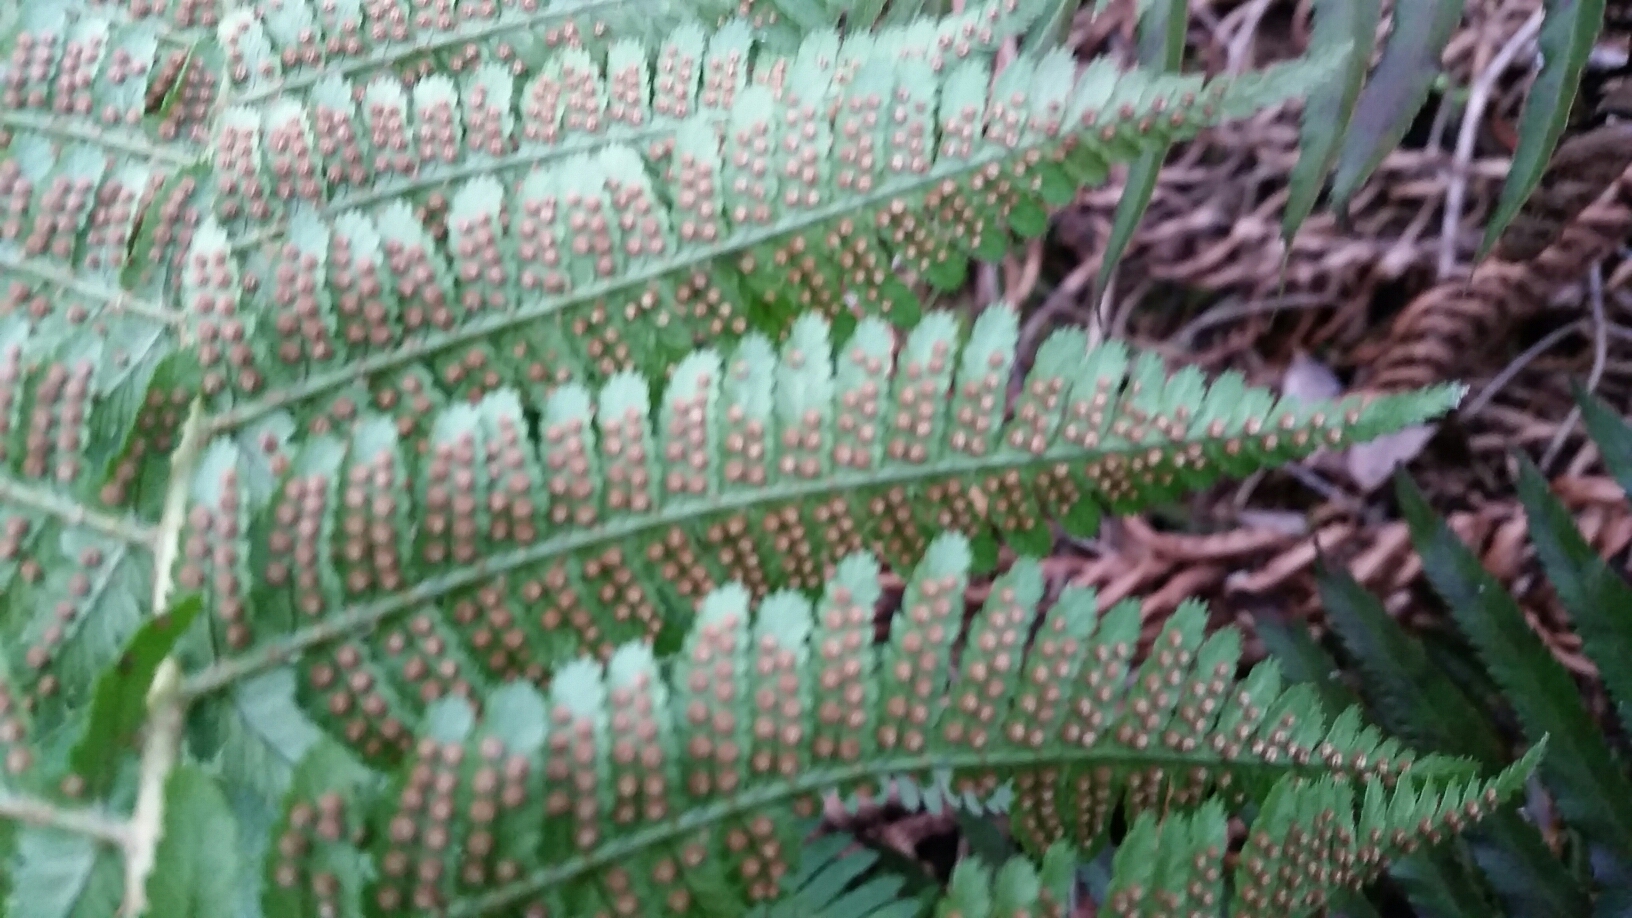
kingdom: Plantae
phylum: Tracheophyta
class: Polypodiopsida
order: Polypodiales
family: Dryopteridaceae
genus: Dryopteris
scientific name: Dryopteris arguta
